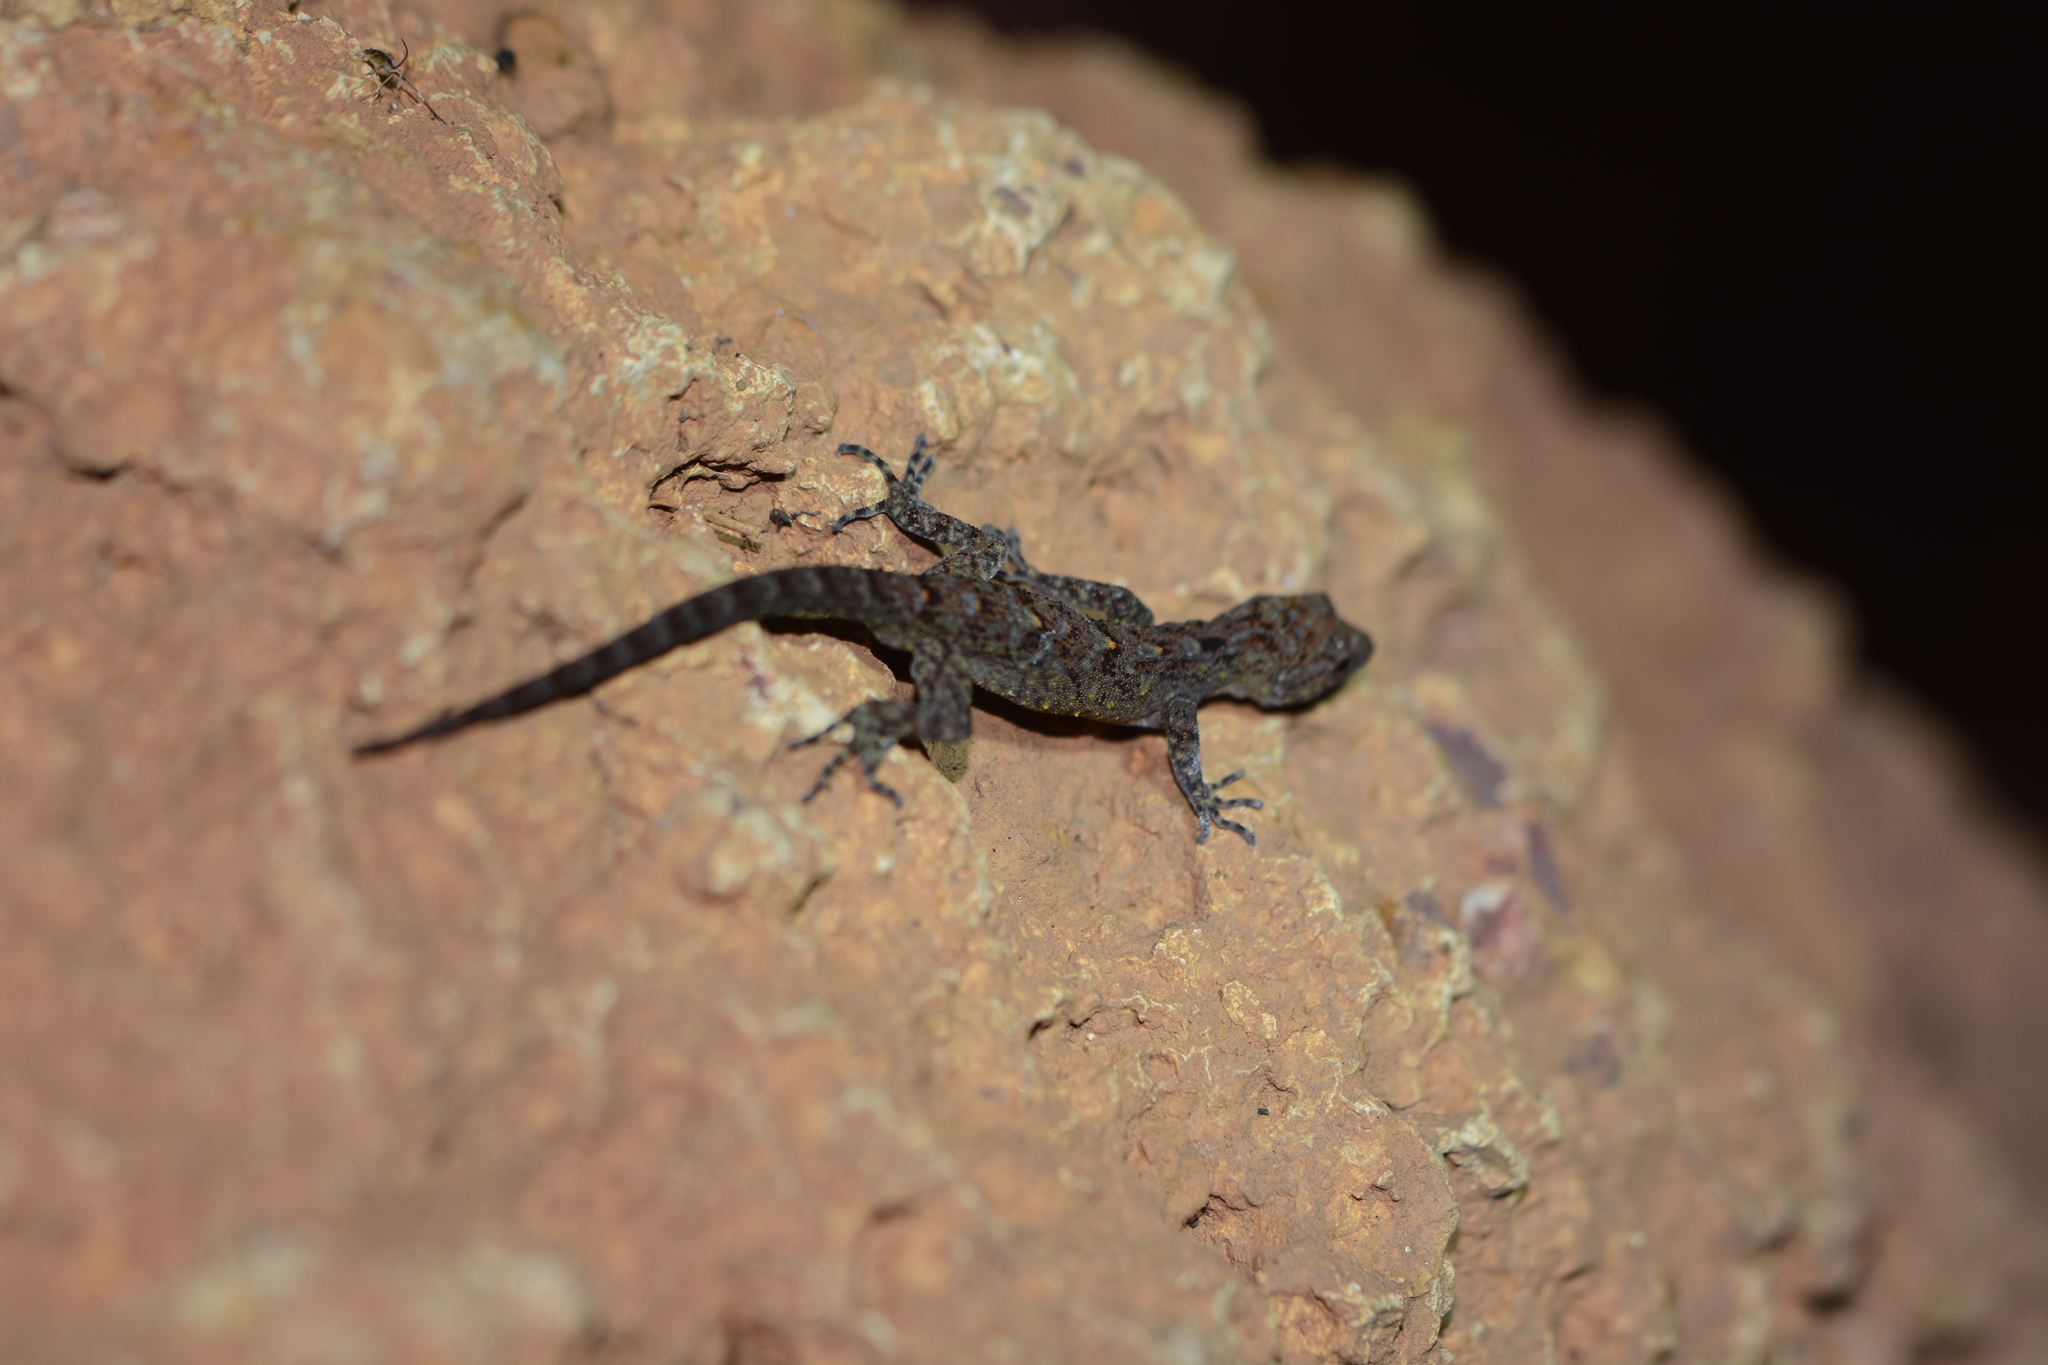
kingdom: Animalia
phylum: Chordata
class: Squamata
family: Gekkonidae
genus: Cnemaspis
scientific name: Cnemaspis girii
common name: Giri’s day gecko
